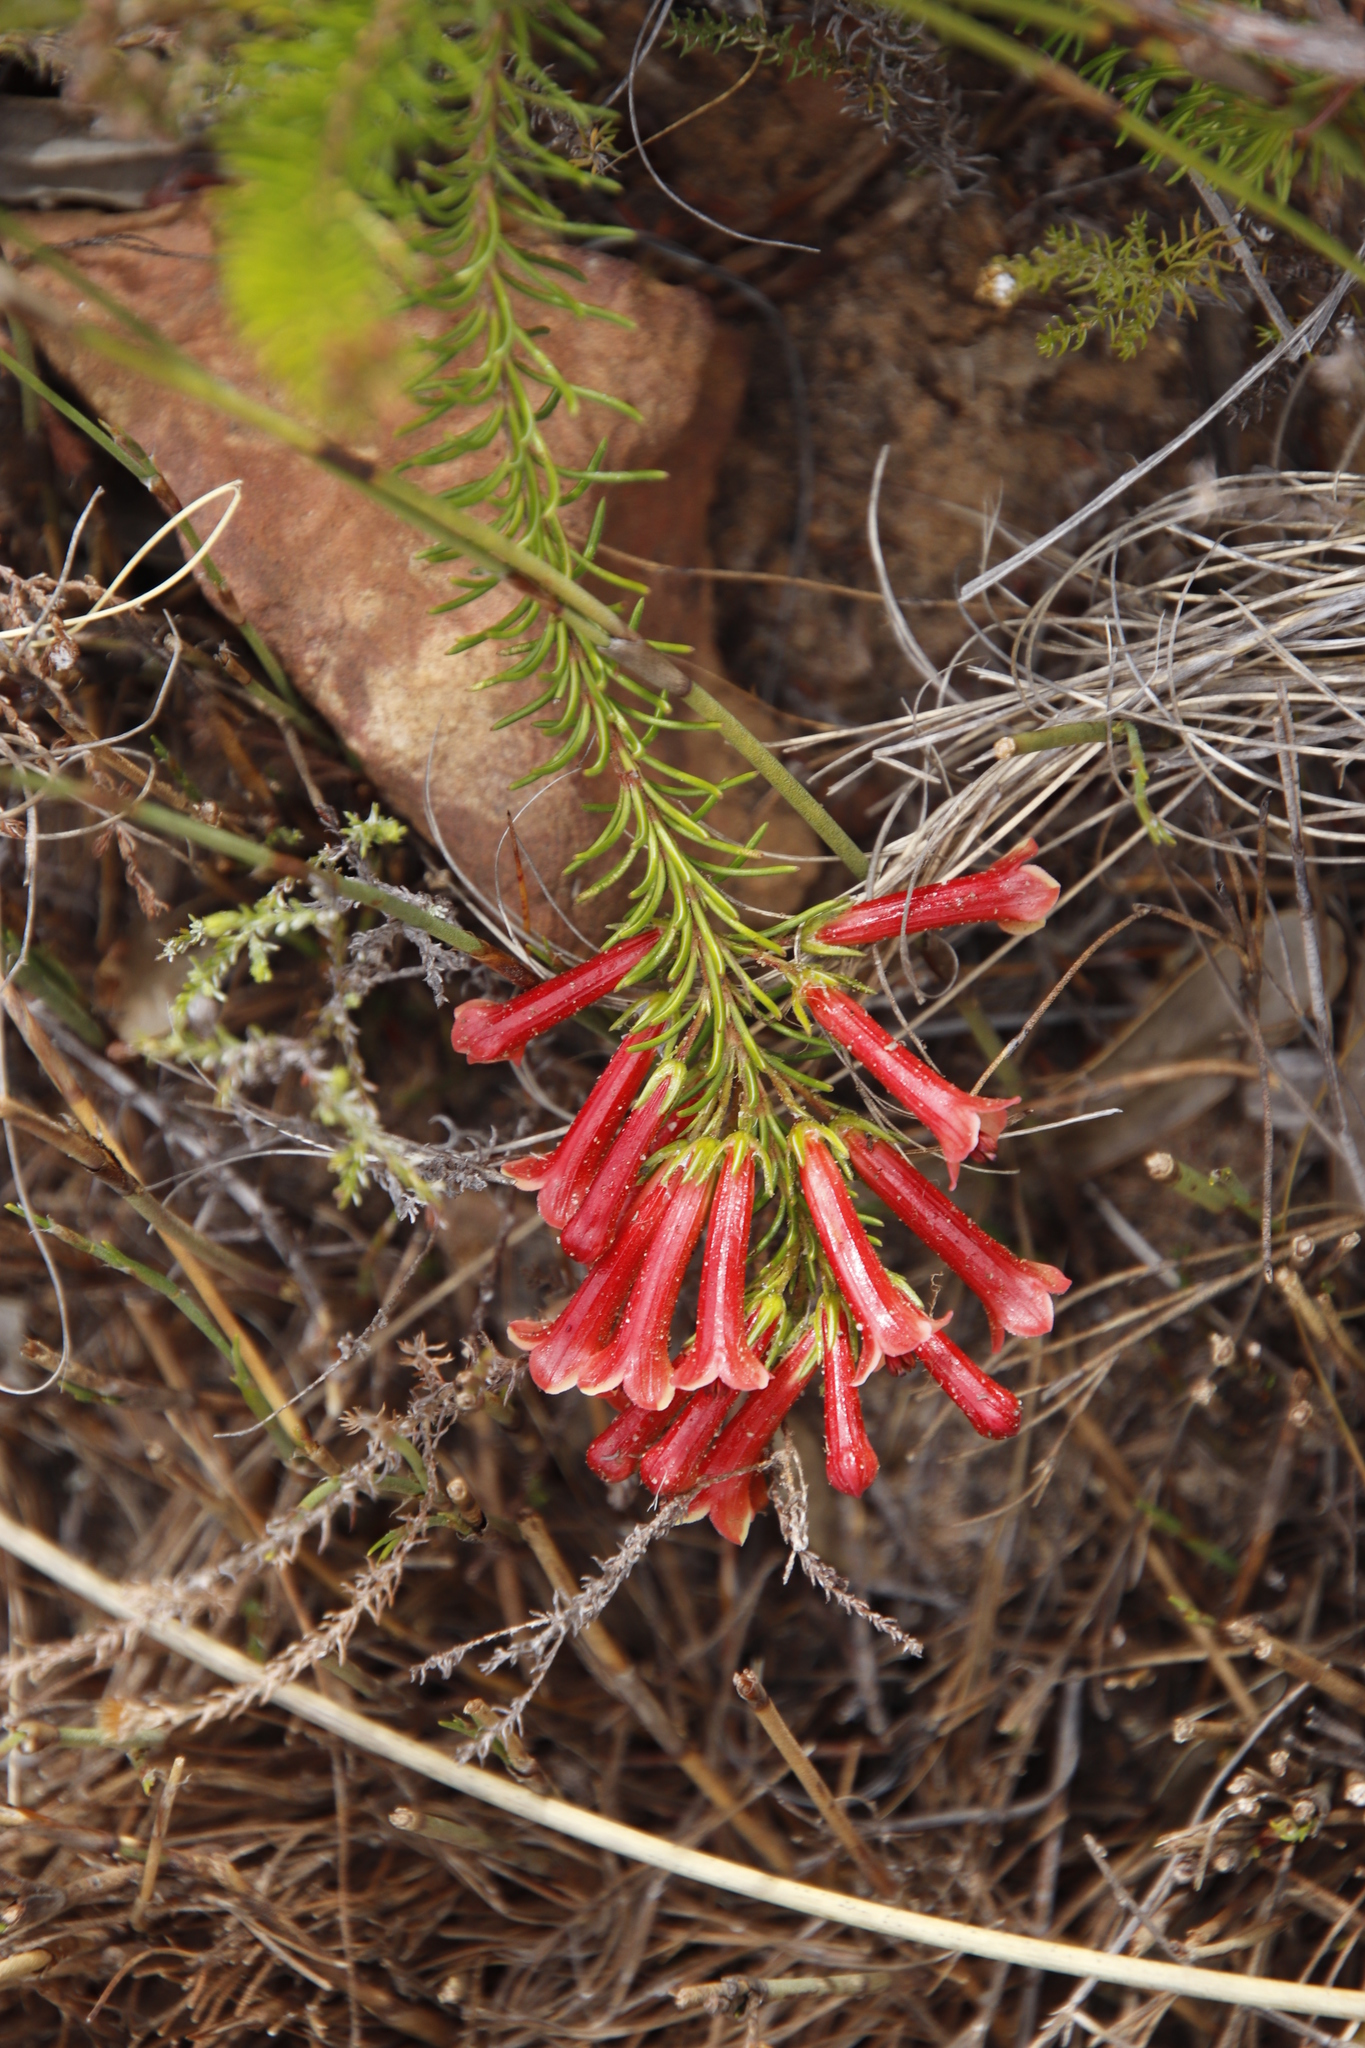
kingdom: Plantae
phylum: Tracheophyta
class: Magnoliopsida
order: Ericales
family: Ericaceae
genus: Erica
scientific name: Erica nevillei
